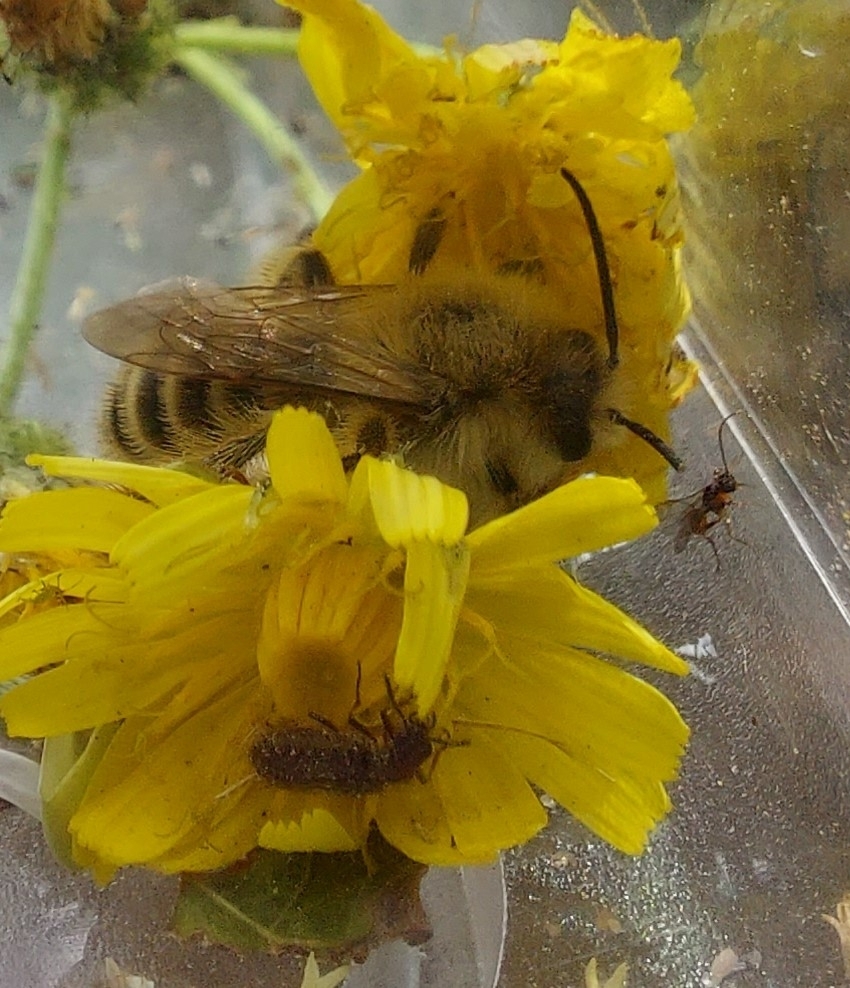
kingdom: Animalia
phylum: Arthropoda
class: Insecta
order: Hymenoptera
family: Melittidae
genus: Dasypoda
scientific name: Dasypoda hirtipes
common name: Pantaloon bee
